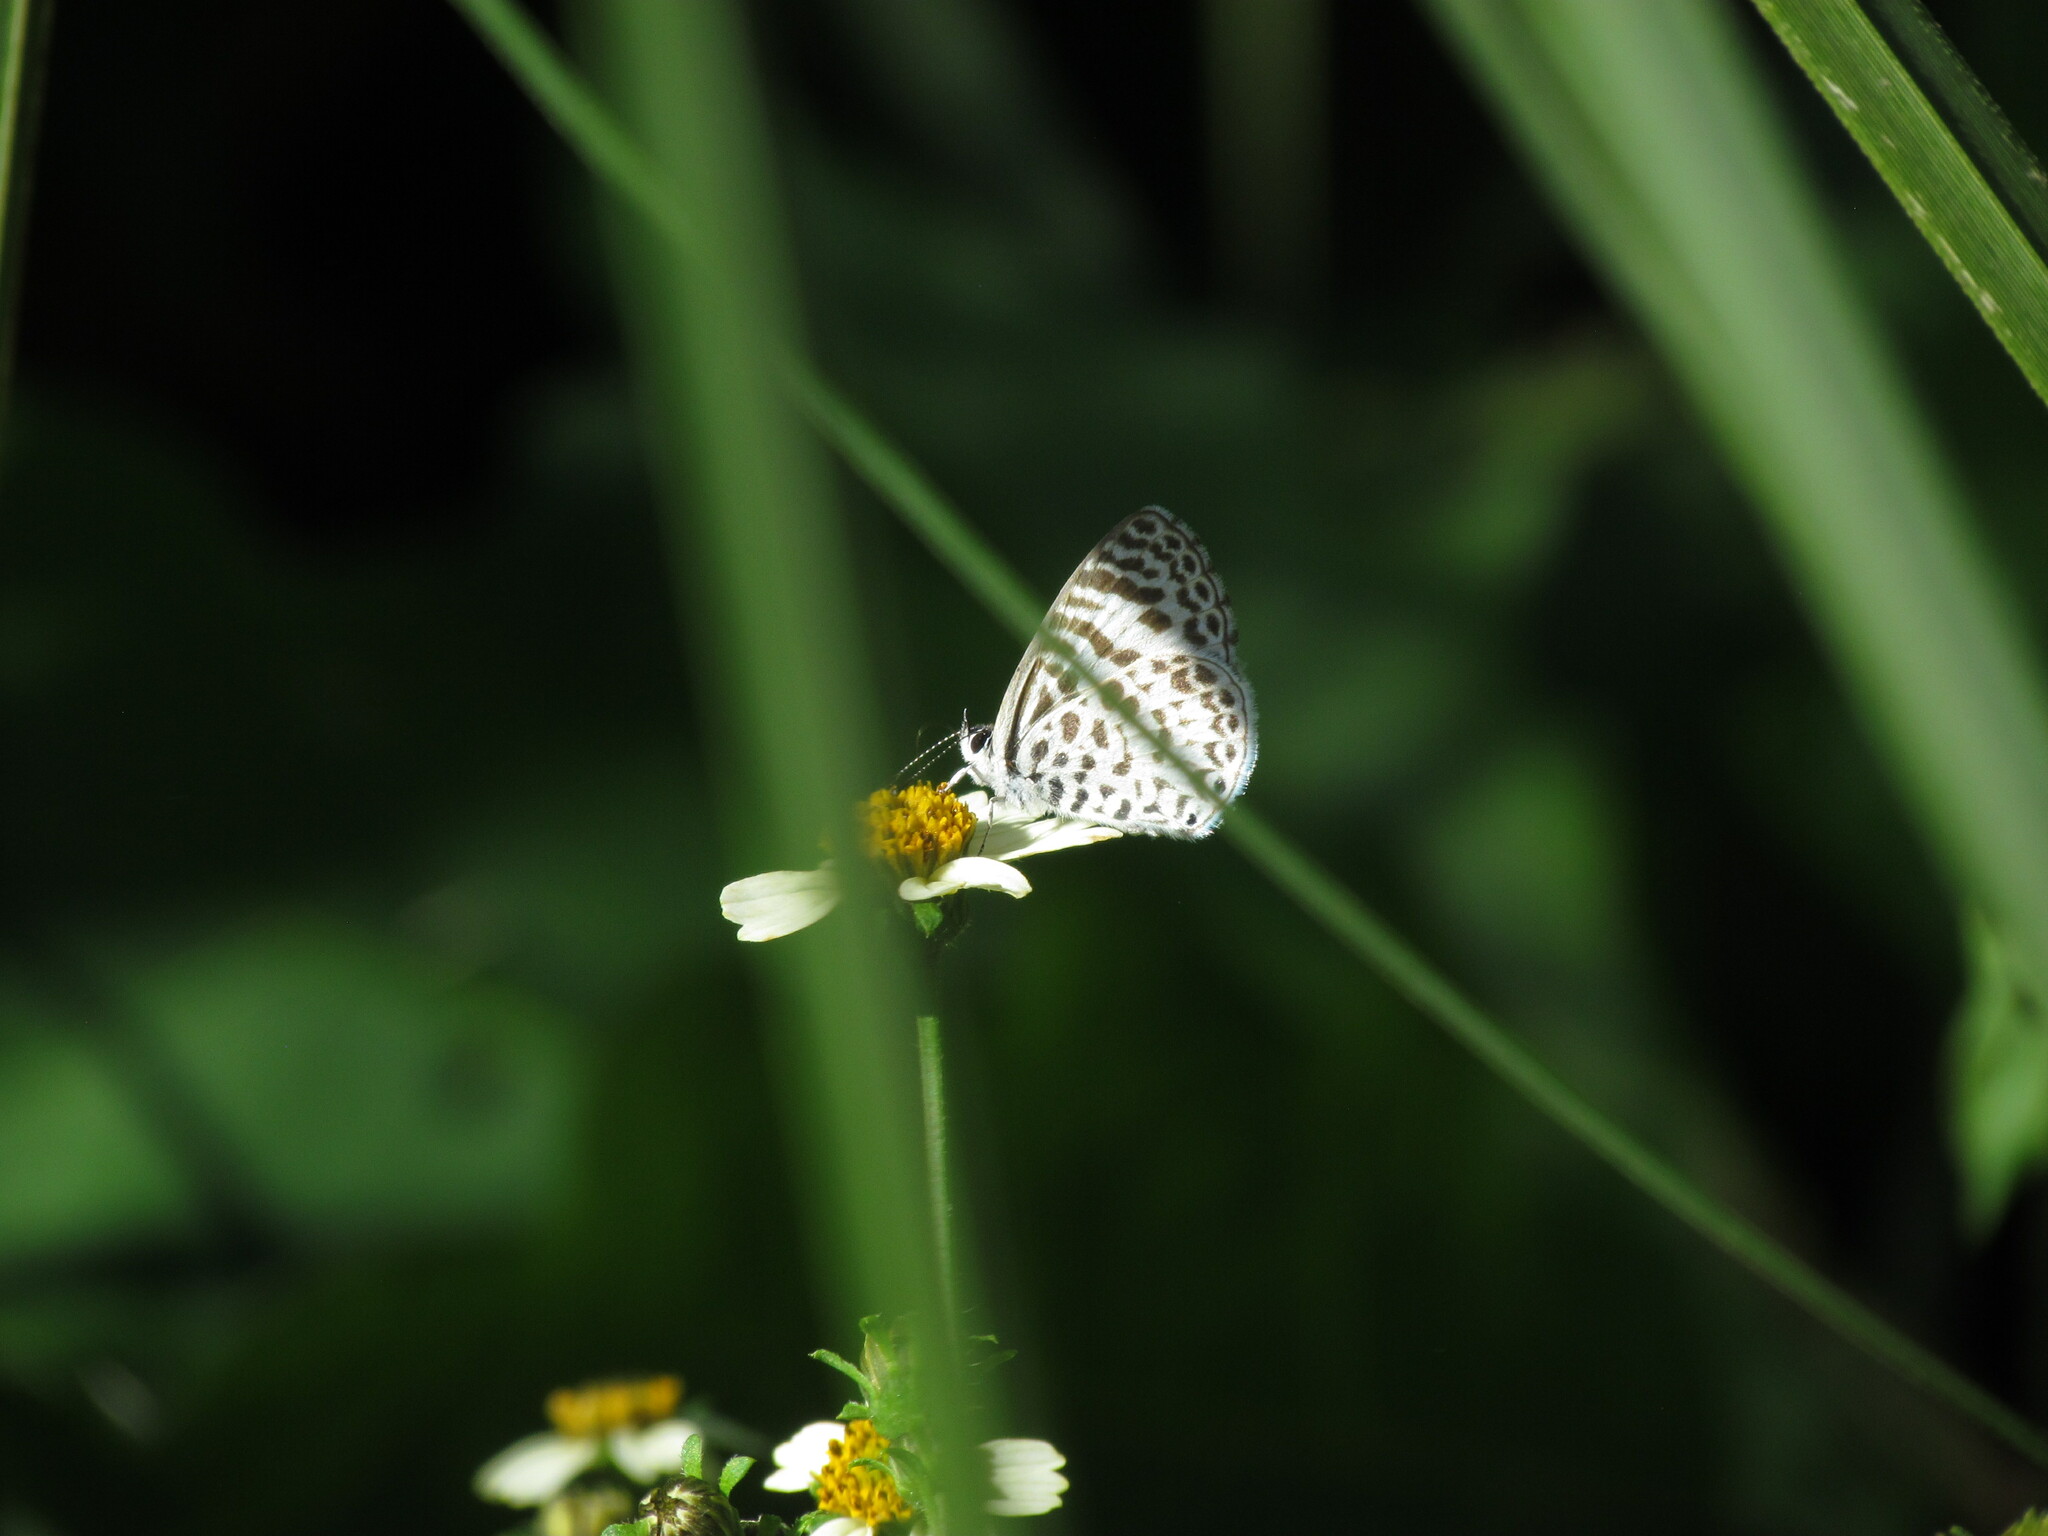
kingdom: Animalia
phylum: Arthropoda
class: Insecta
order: Lepidoptera
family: Lycaenidae
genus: Leptotes
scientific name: Leptotes cassius
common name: Cassius blue
